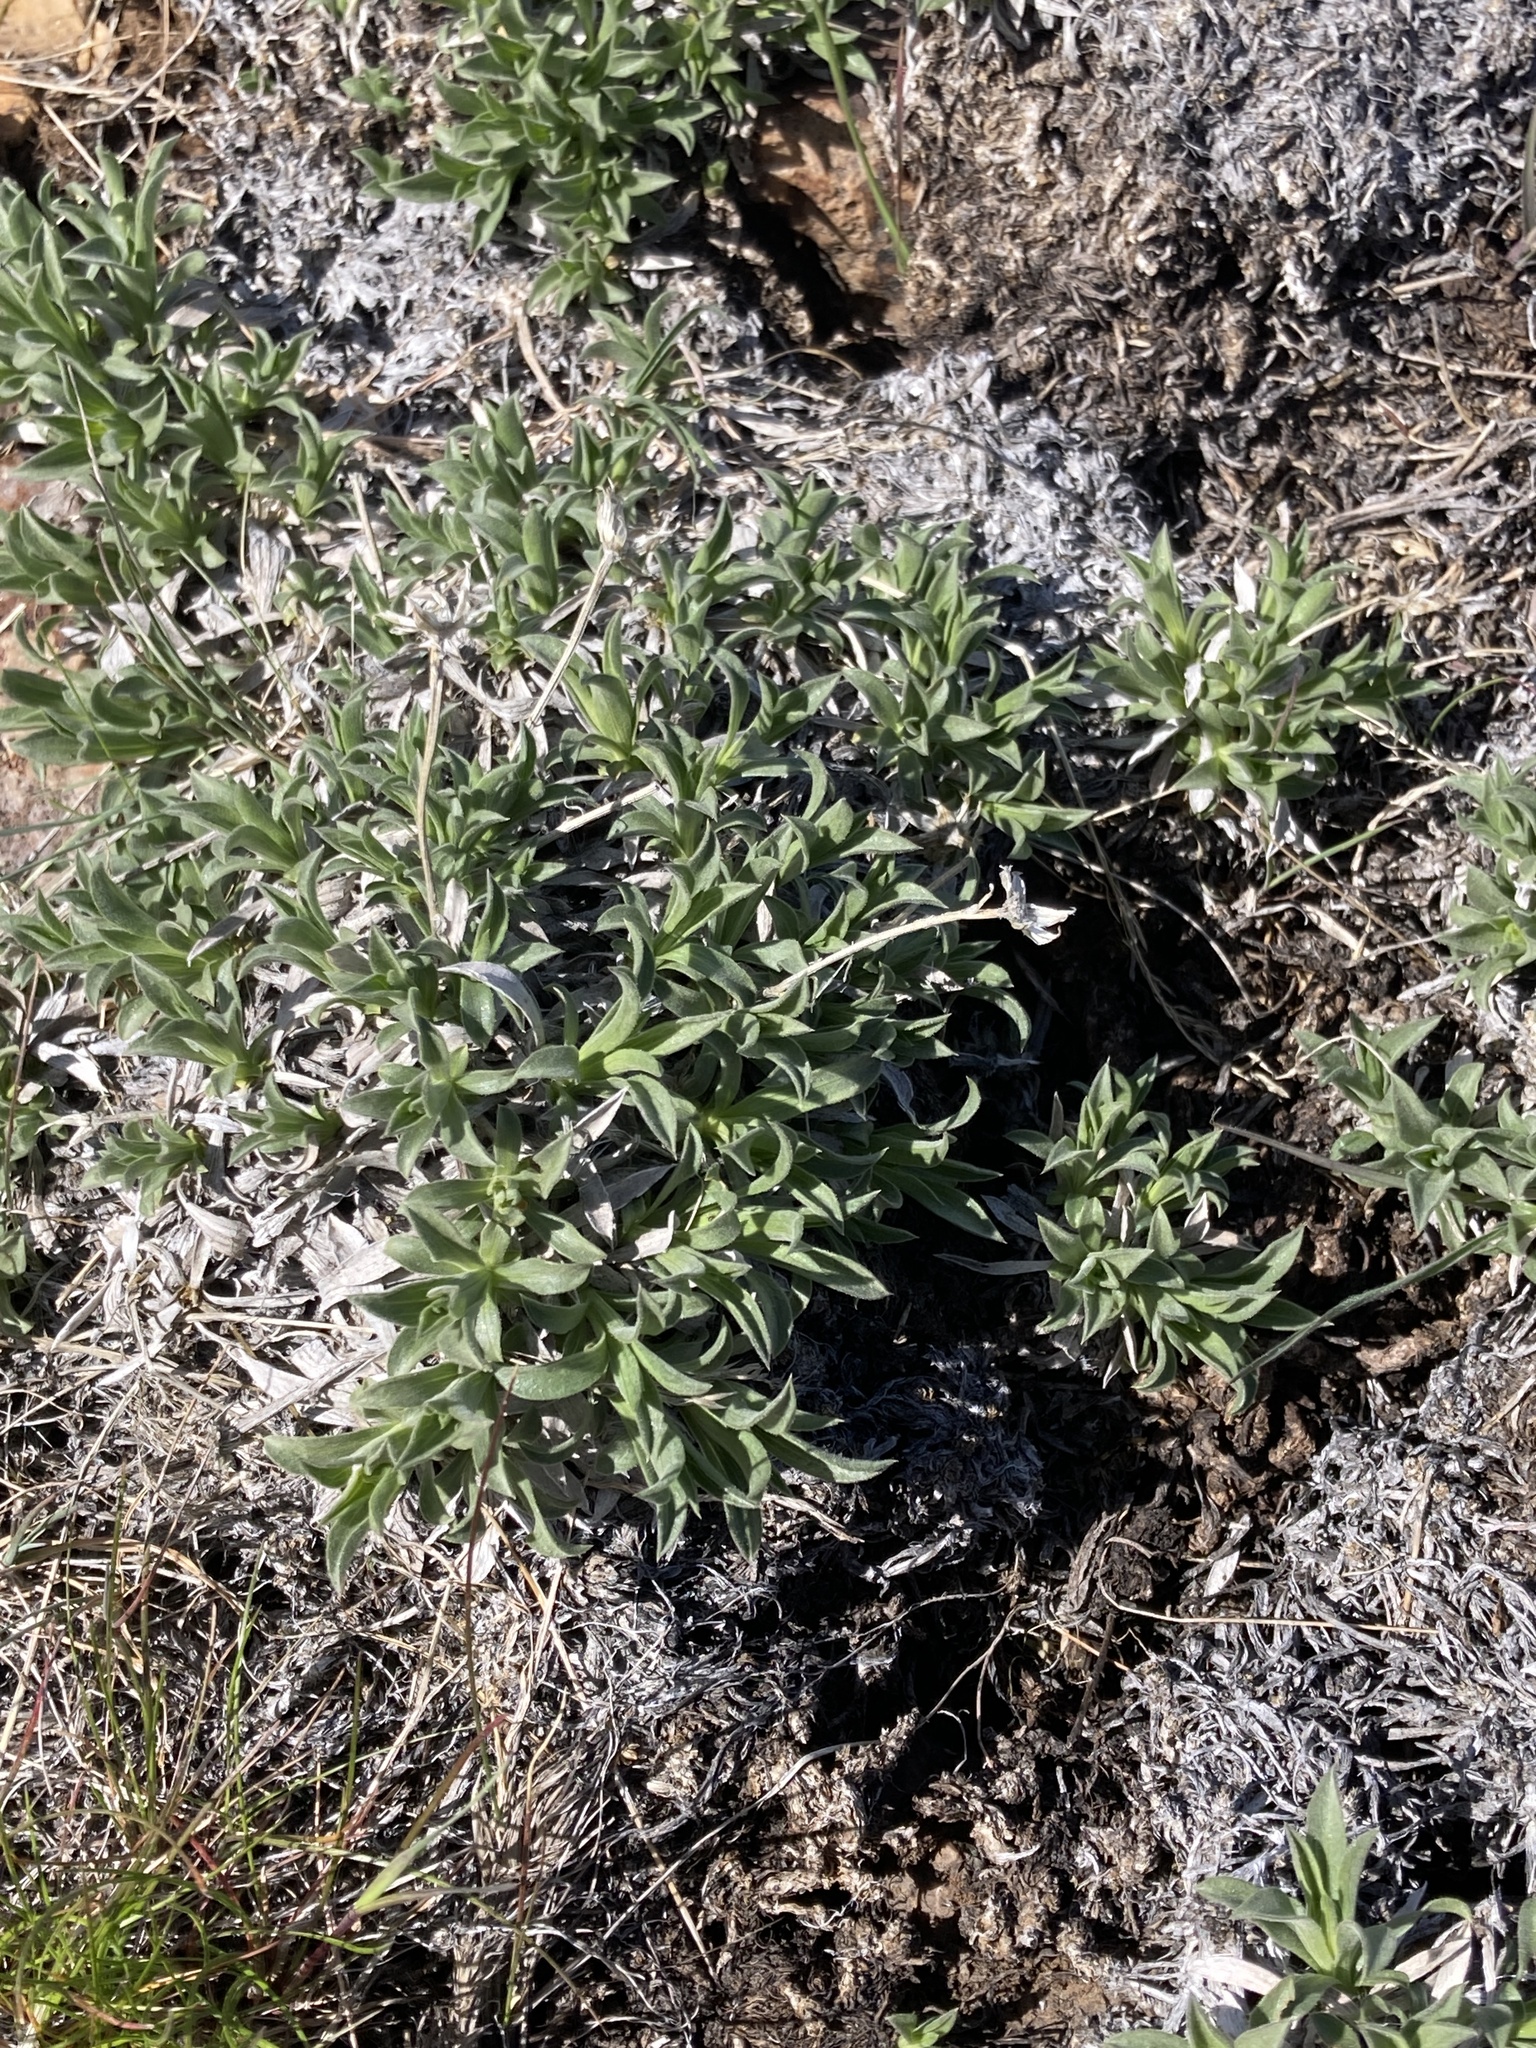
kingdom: Plantae
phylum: Tracheophyta
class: Magnoliopsida
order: Asterales
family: Asteraceae
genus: Stenotus
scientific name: Stenotus acaulis
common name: Stemless goldenweed
